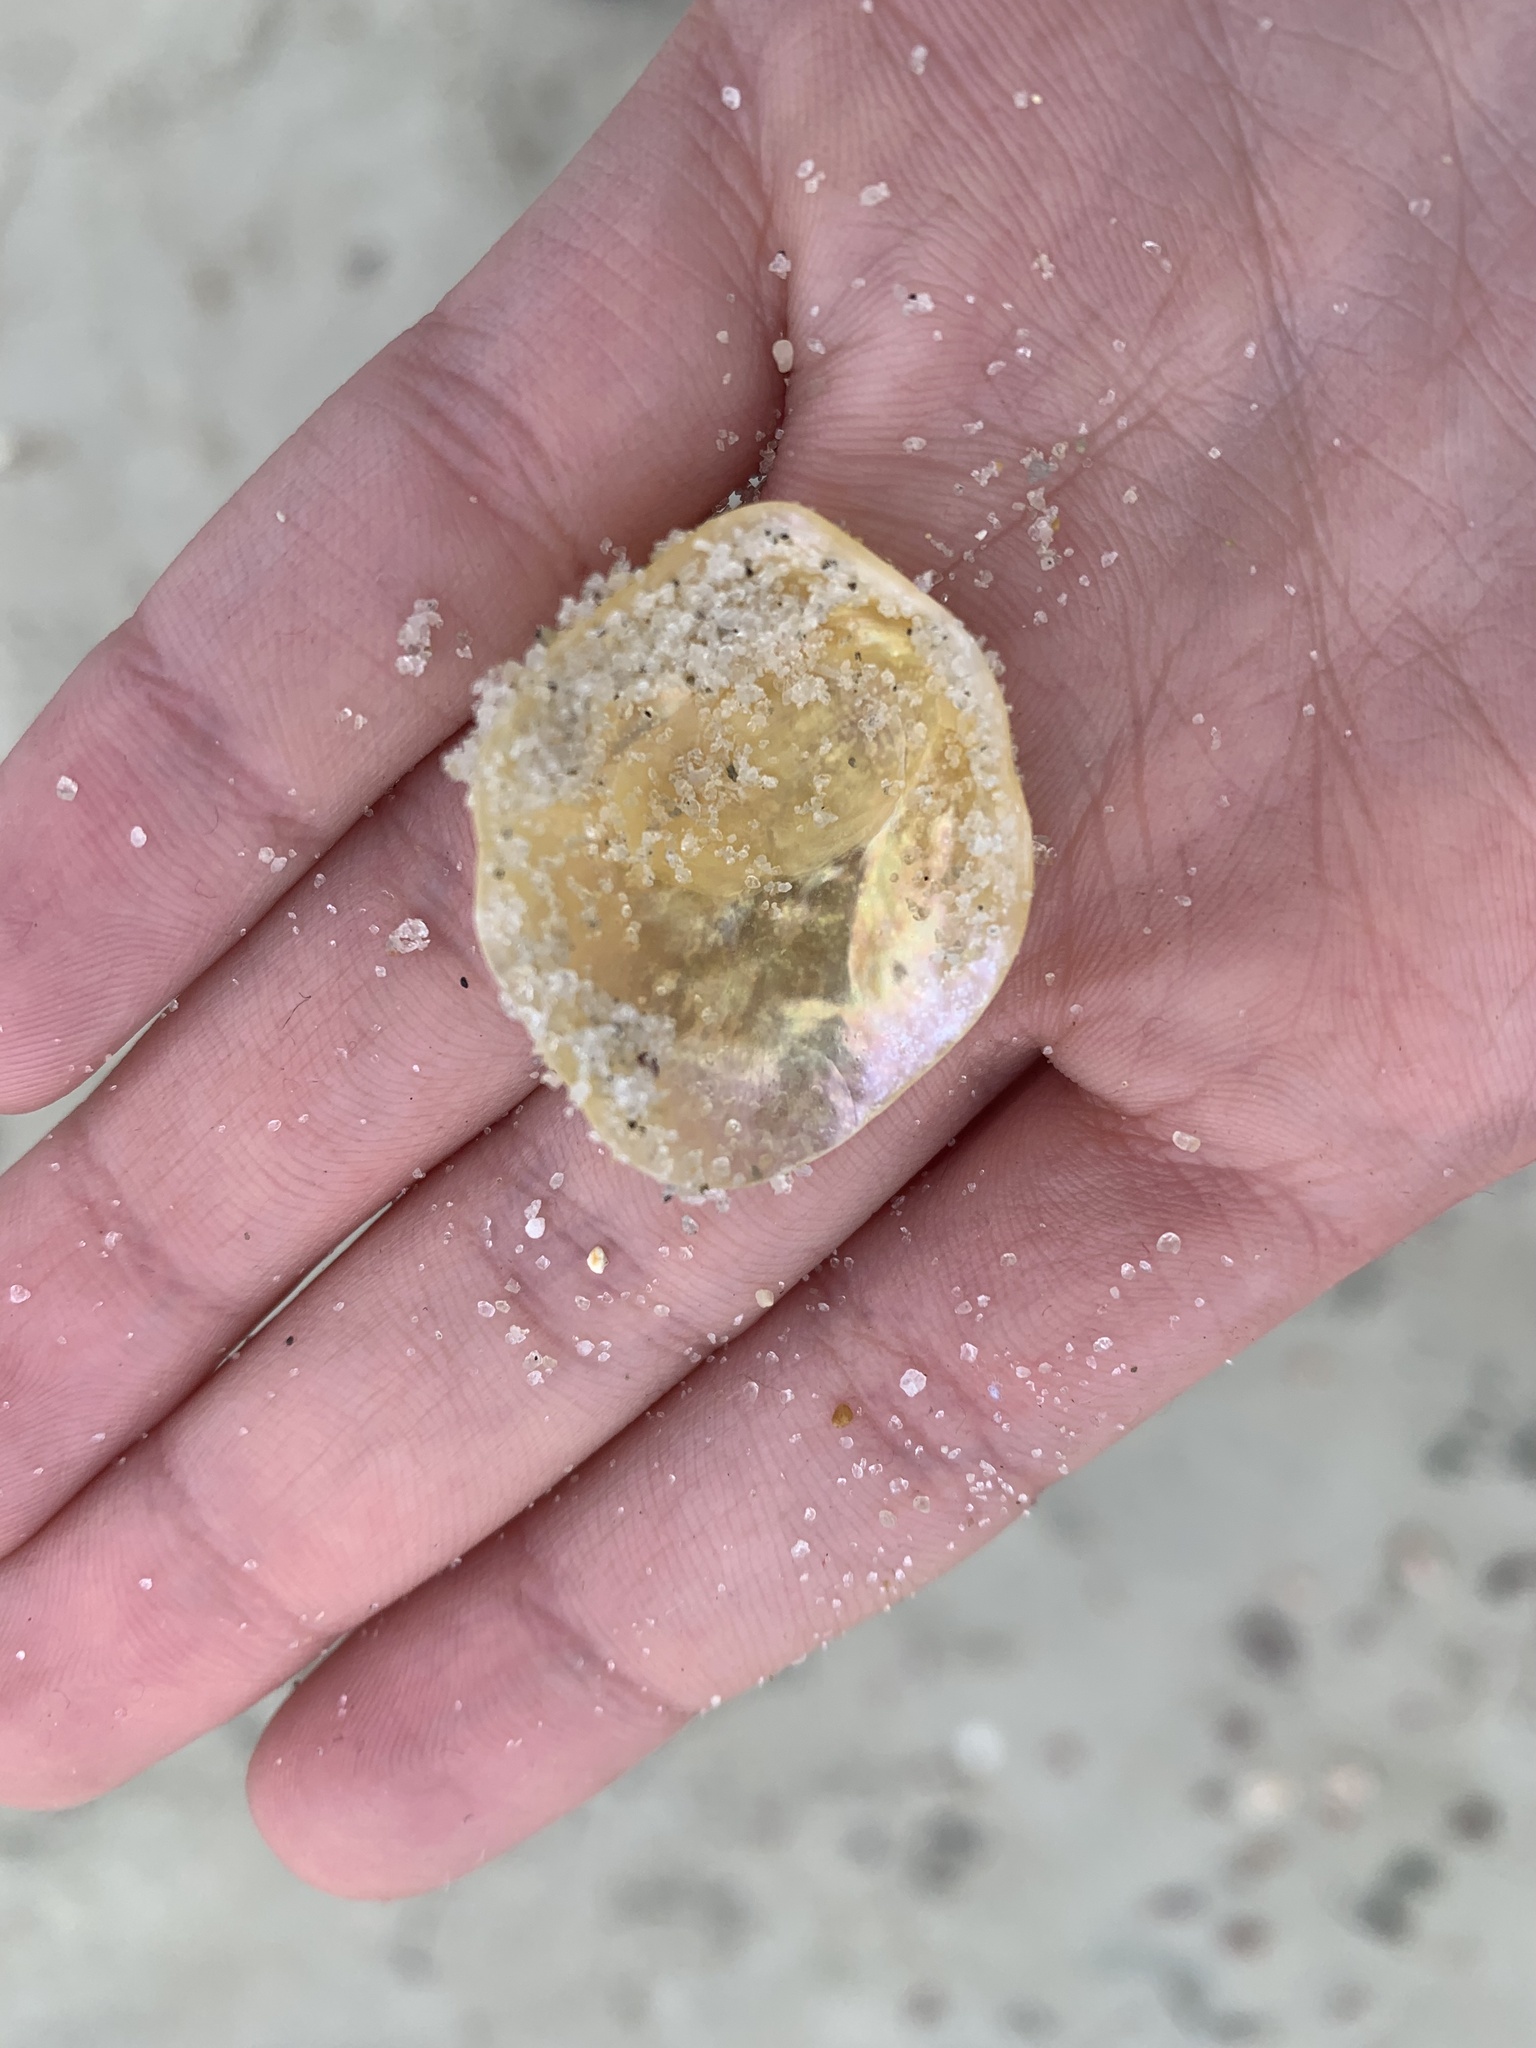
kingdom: Animalia
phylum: Mollusca
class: Bivalvia
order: Pectinida
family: Anomiidae
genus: Anomia
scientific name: Anomia simplex
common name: Common jingle shell
